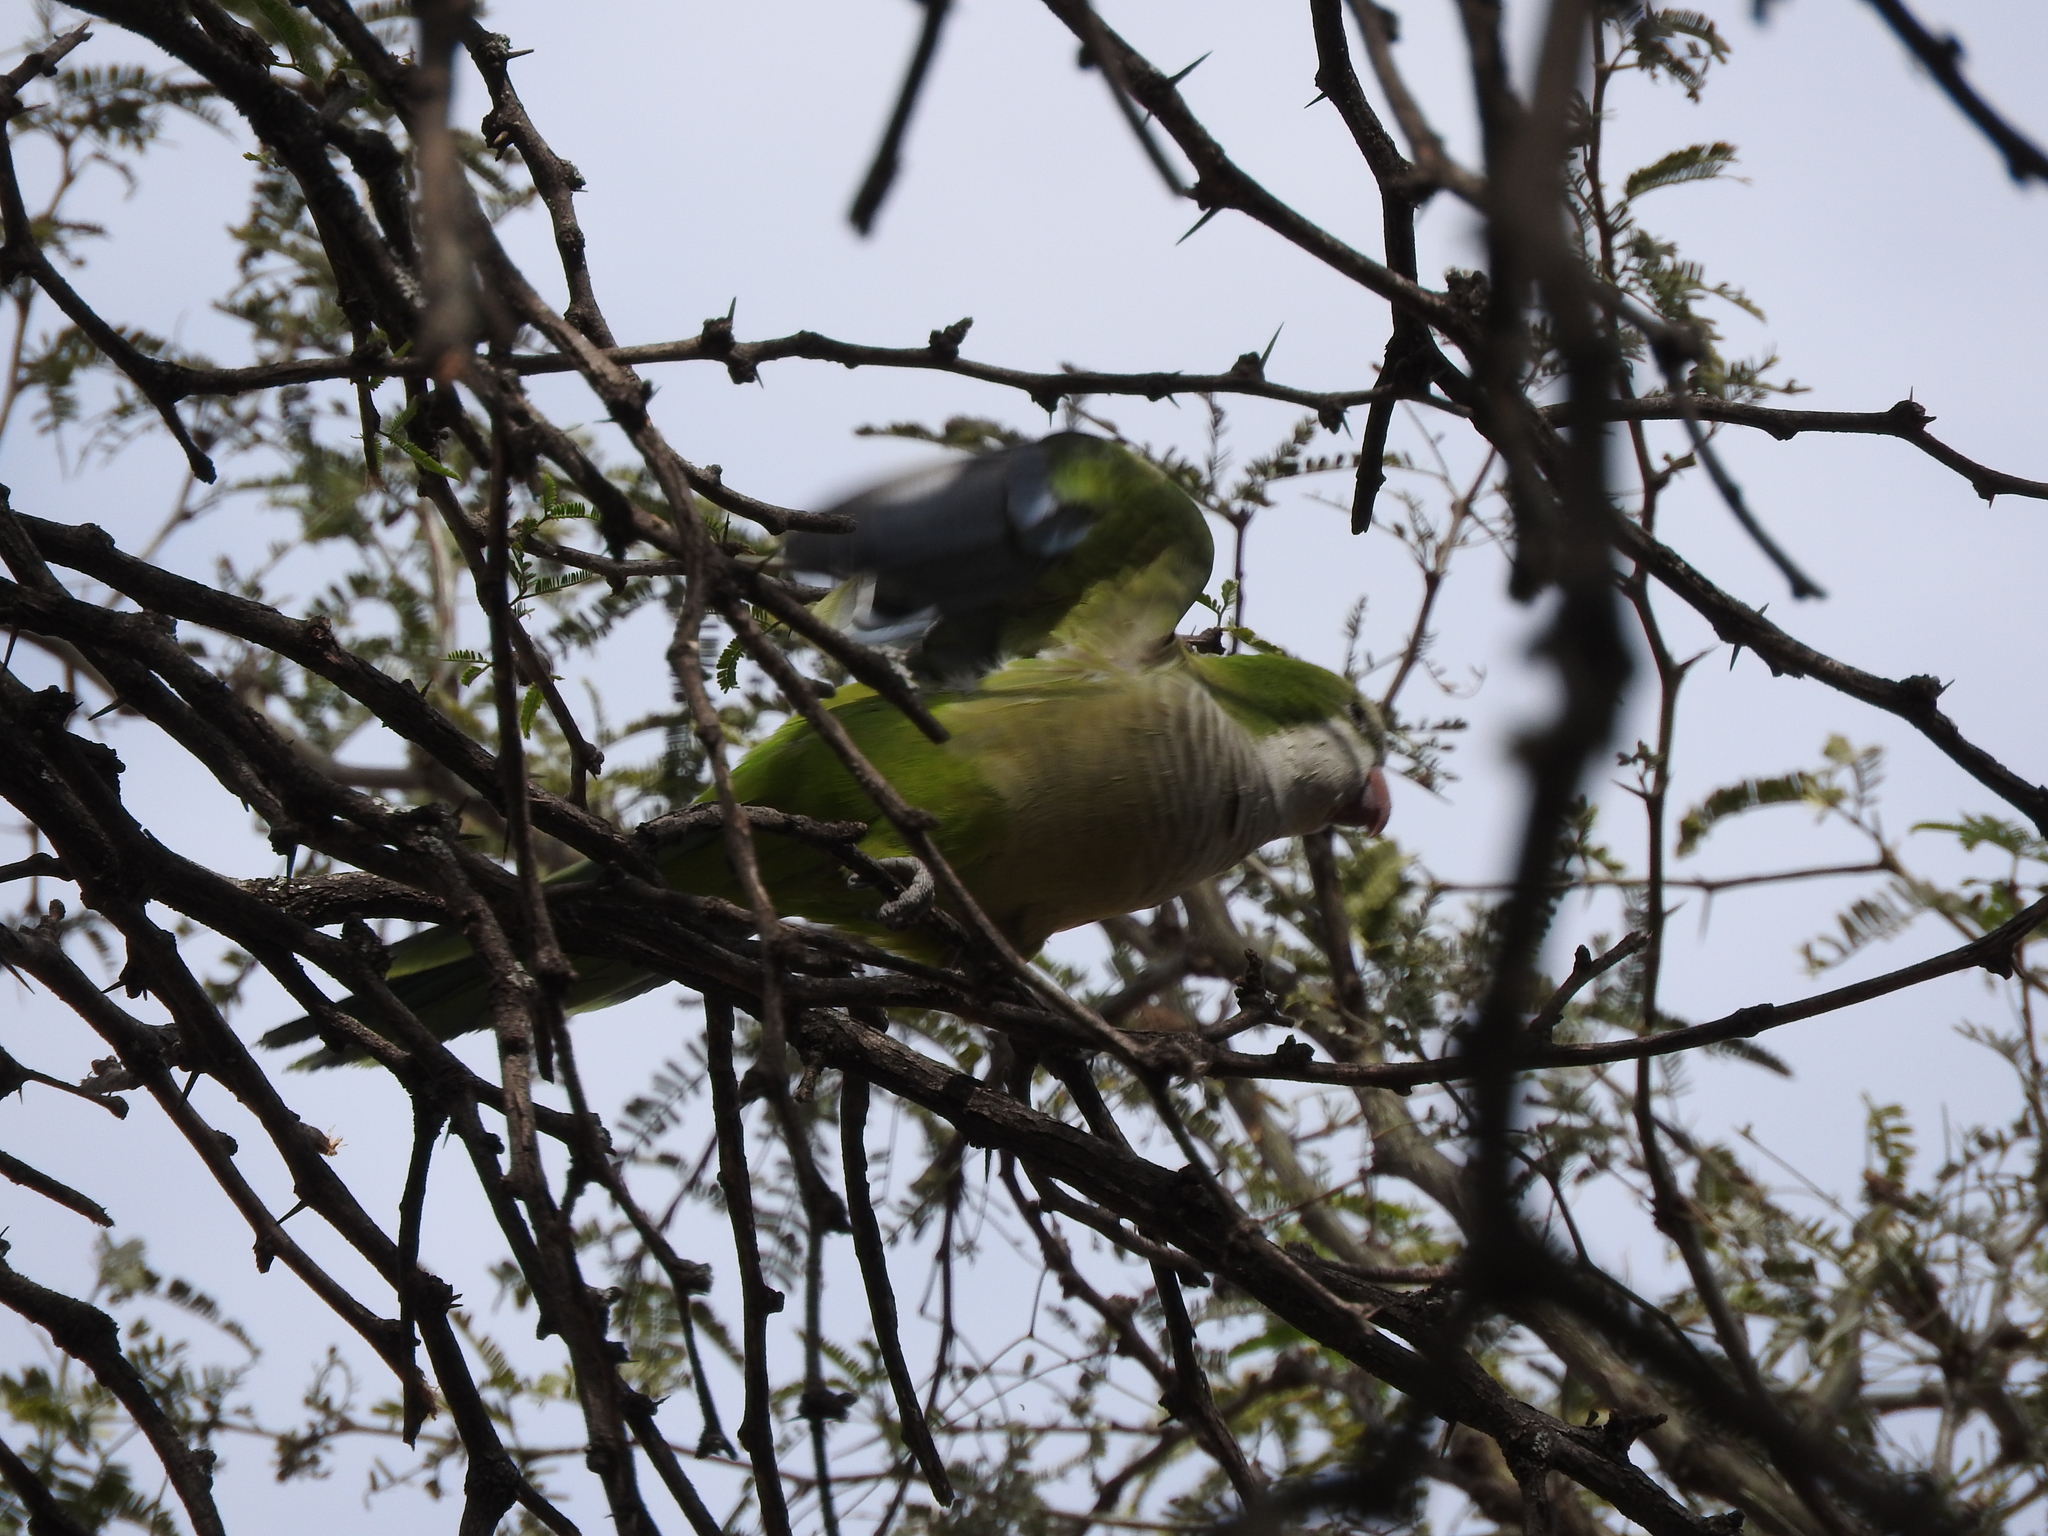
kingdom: Animalia
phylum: Chordata
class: Aves
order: Psittaciformes
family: Psittacidae
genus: Myiopsitta
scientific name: Myiopsitta monachus
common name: Monk parakeet
